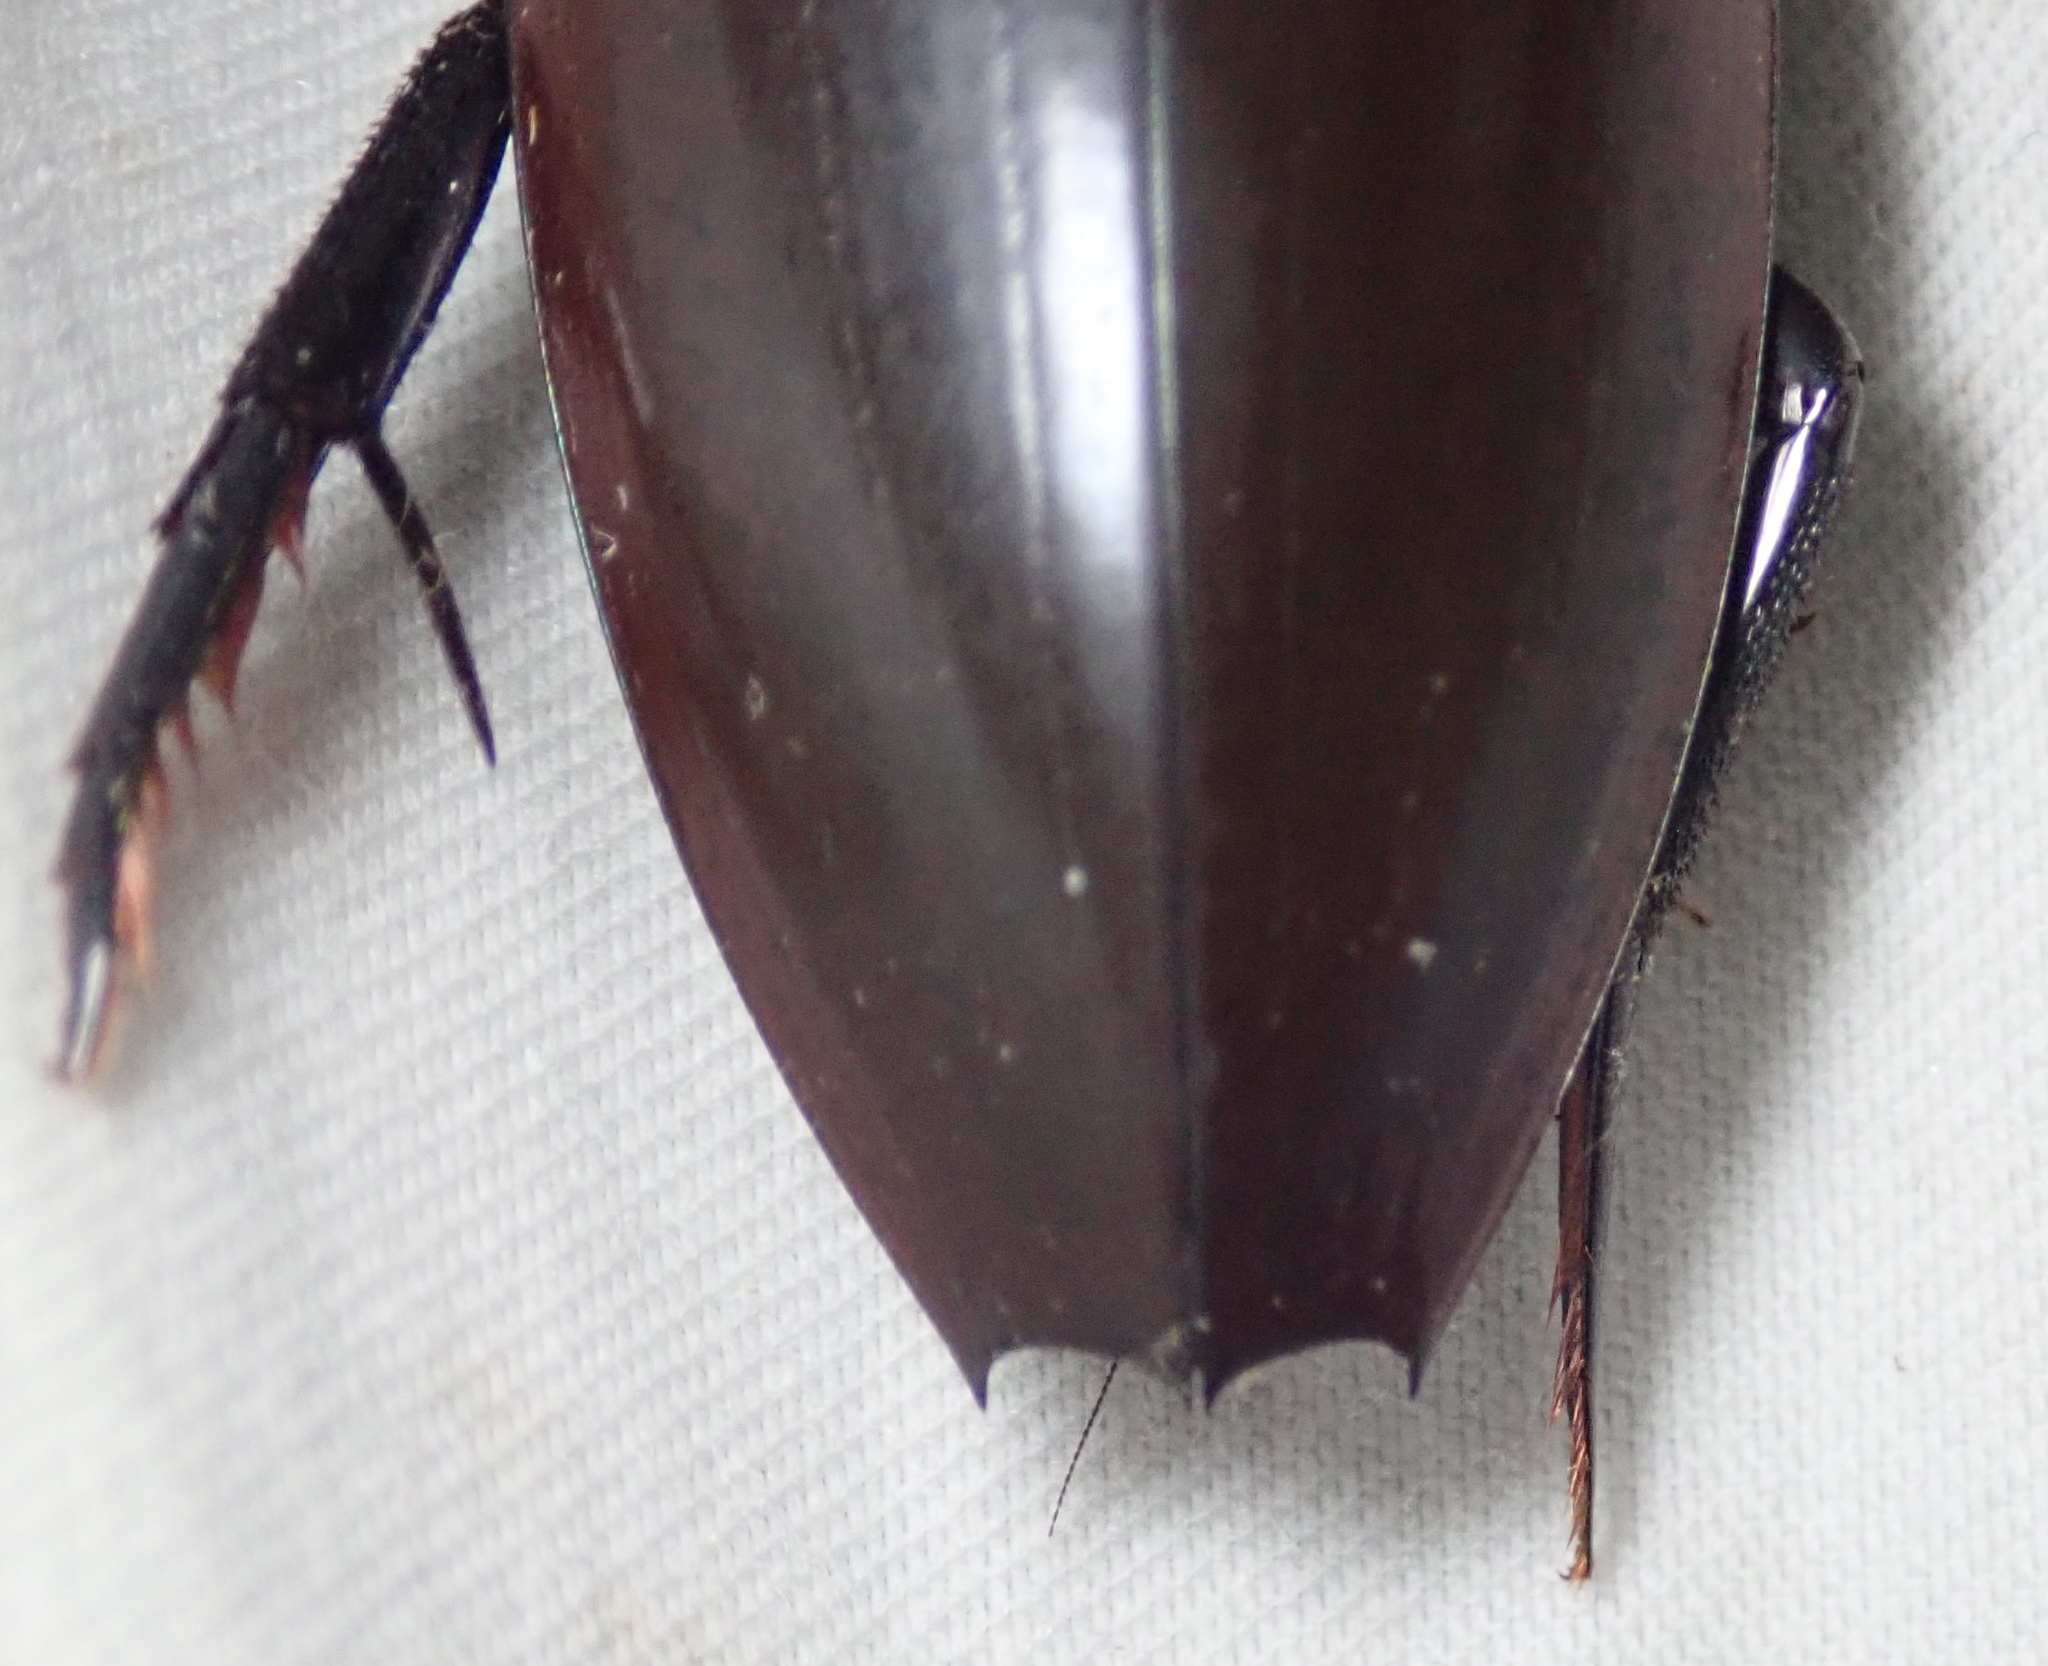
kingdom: Animalia
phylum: Arthropoda
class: Insecta
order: Coleoptera
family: Hydrophilidae
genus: Hydrophilus
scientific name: Hydrophilus aculeatus
